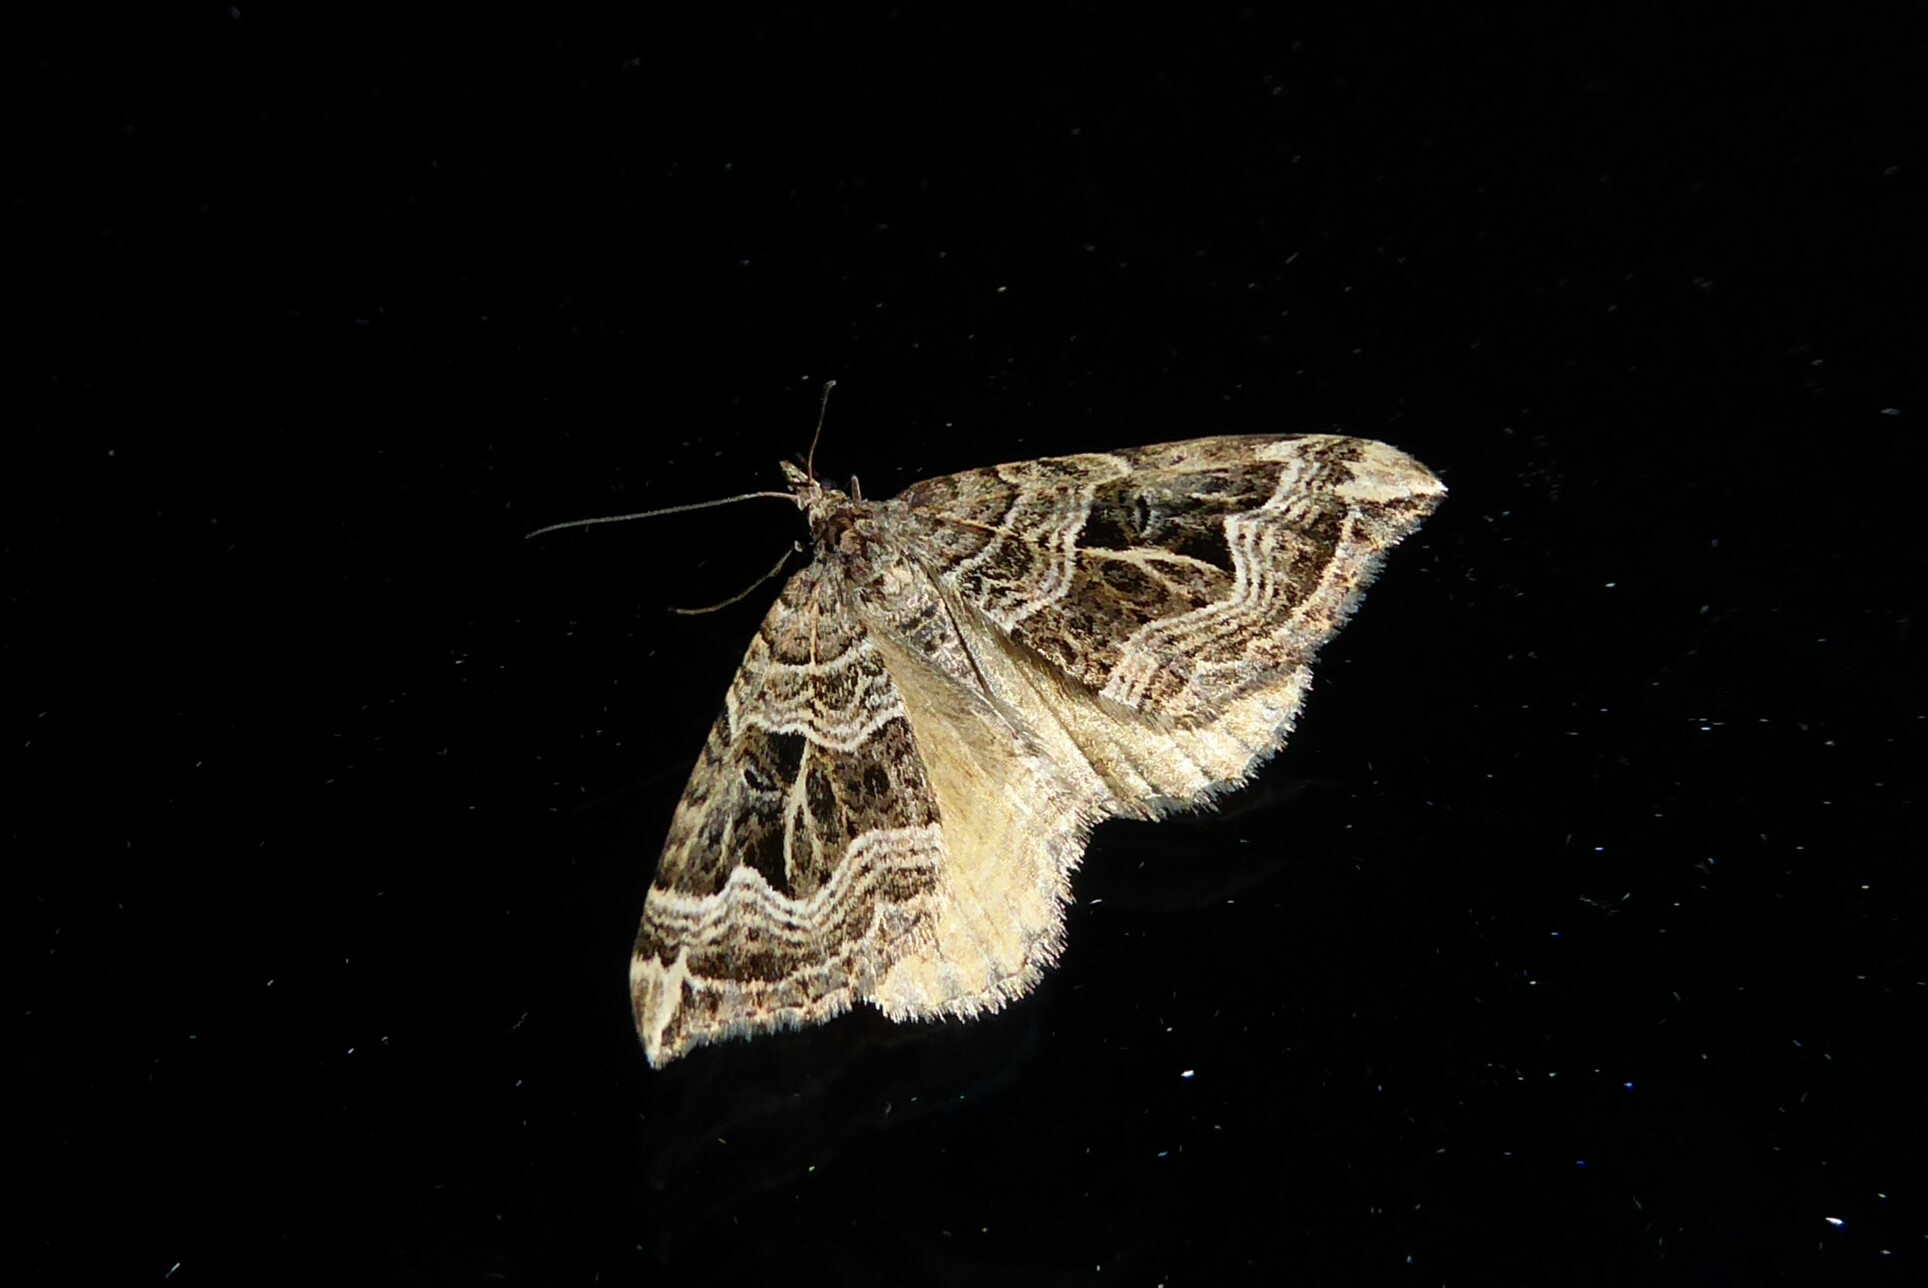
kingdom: Animalia
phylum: Arthropoda
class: Insecta
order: Lepidoptera
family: Geometridae
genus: Xanthorhoe
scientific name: Xanthorhoe semifissata
